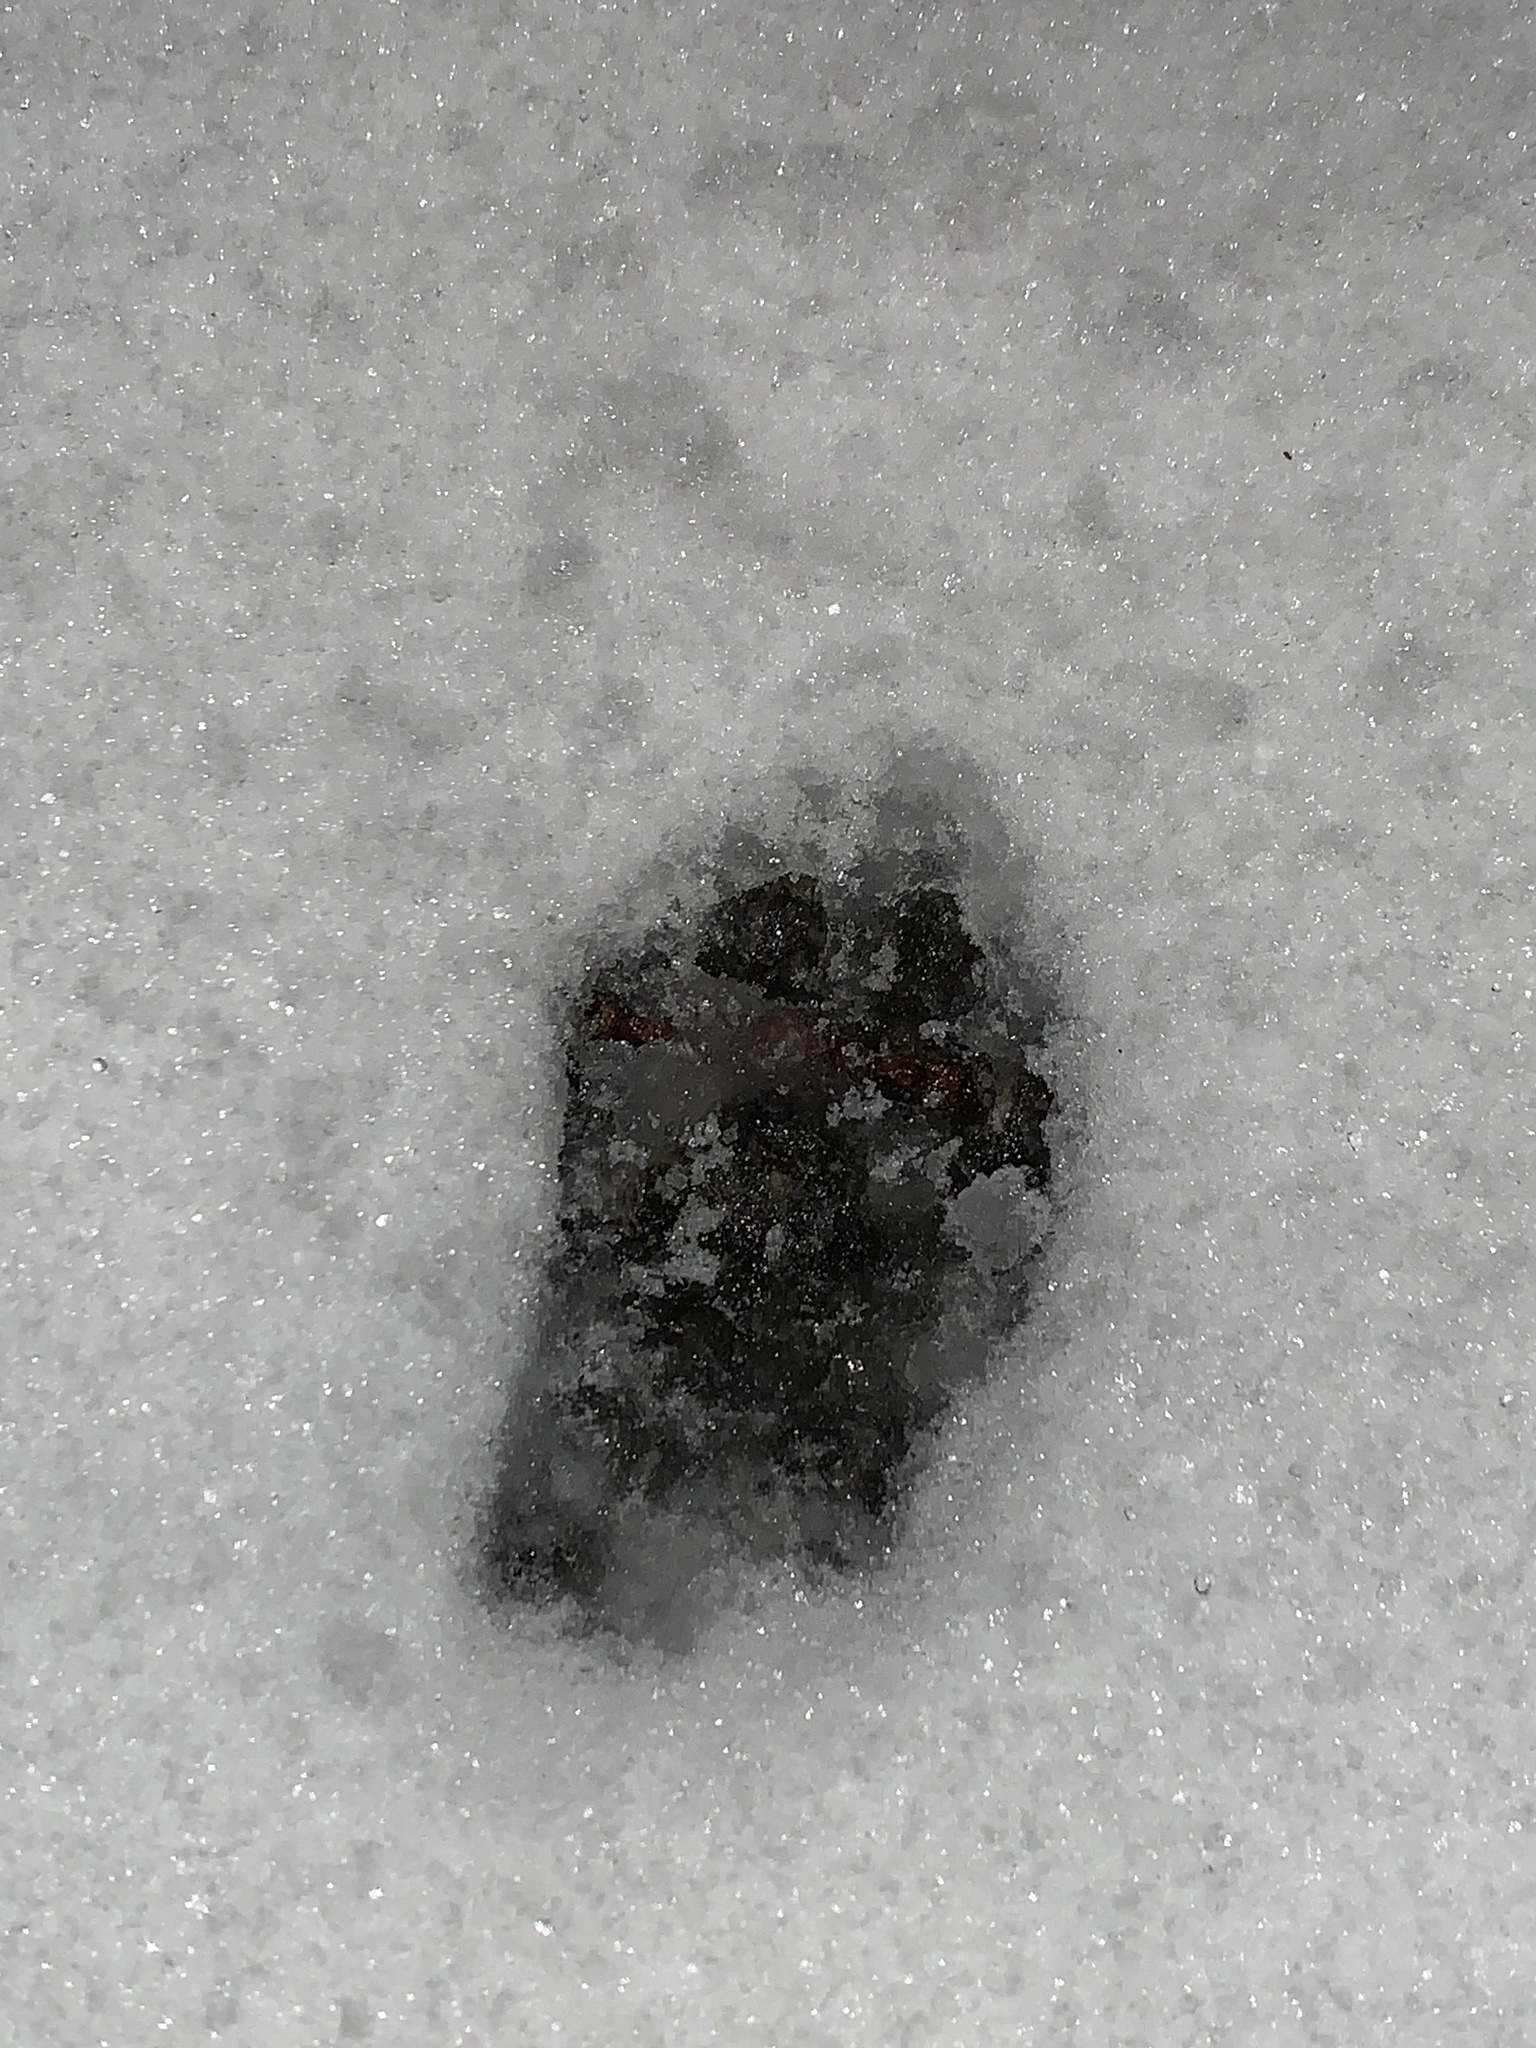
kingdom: Animalia
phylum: Chordata
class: Mammalia
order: Carnivora
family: Felidae
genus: Felis
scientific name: Felis catus
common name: Domestic cat
